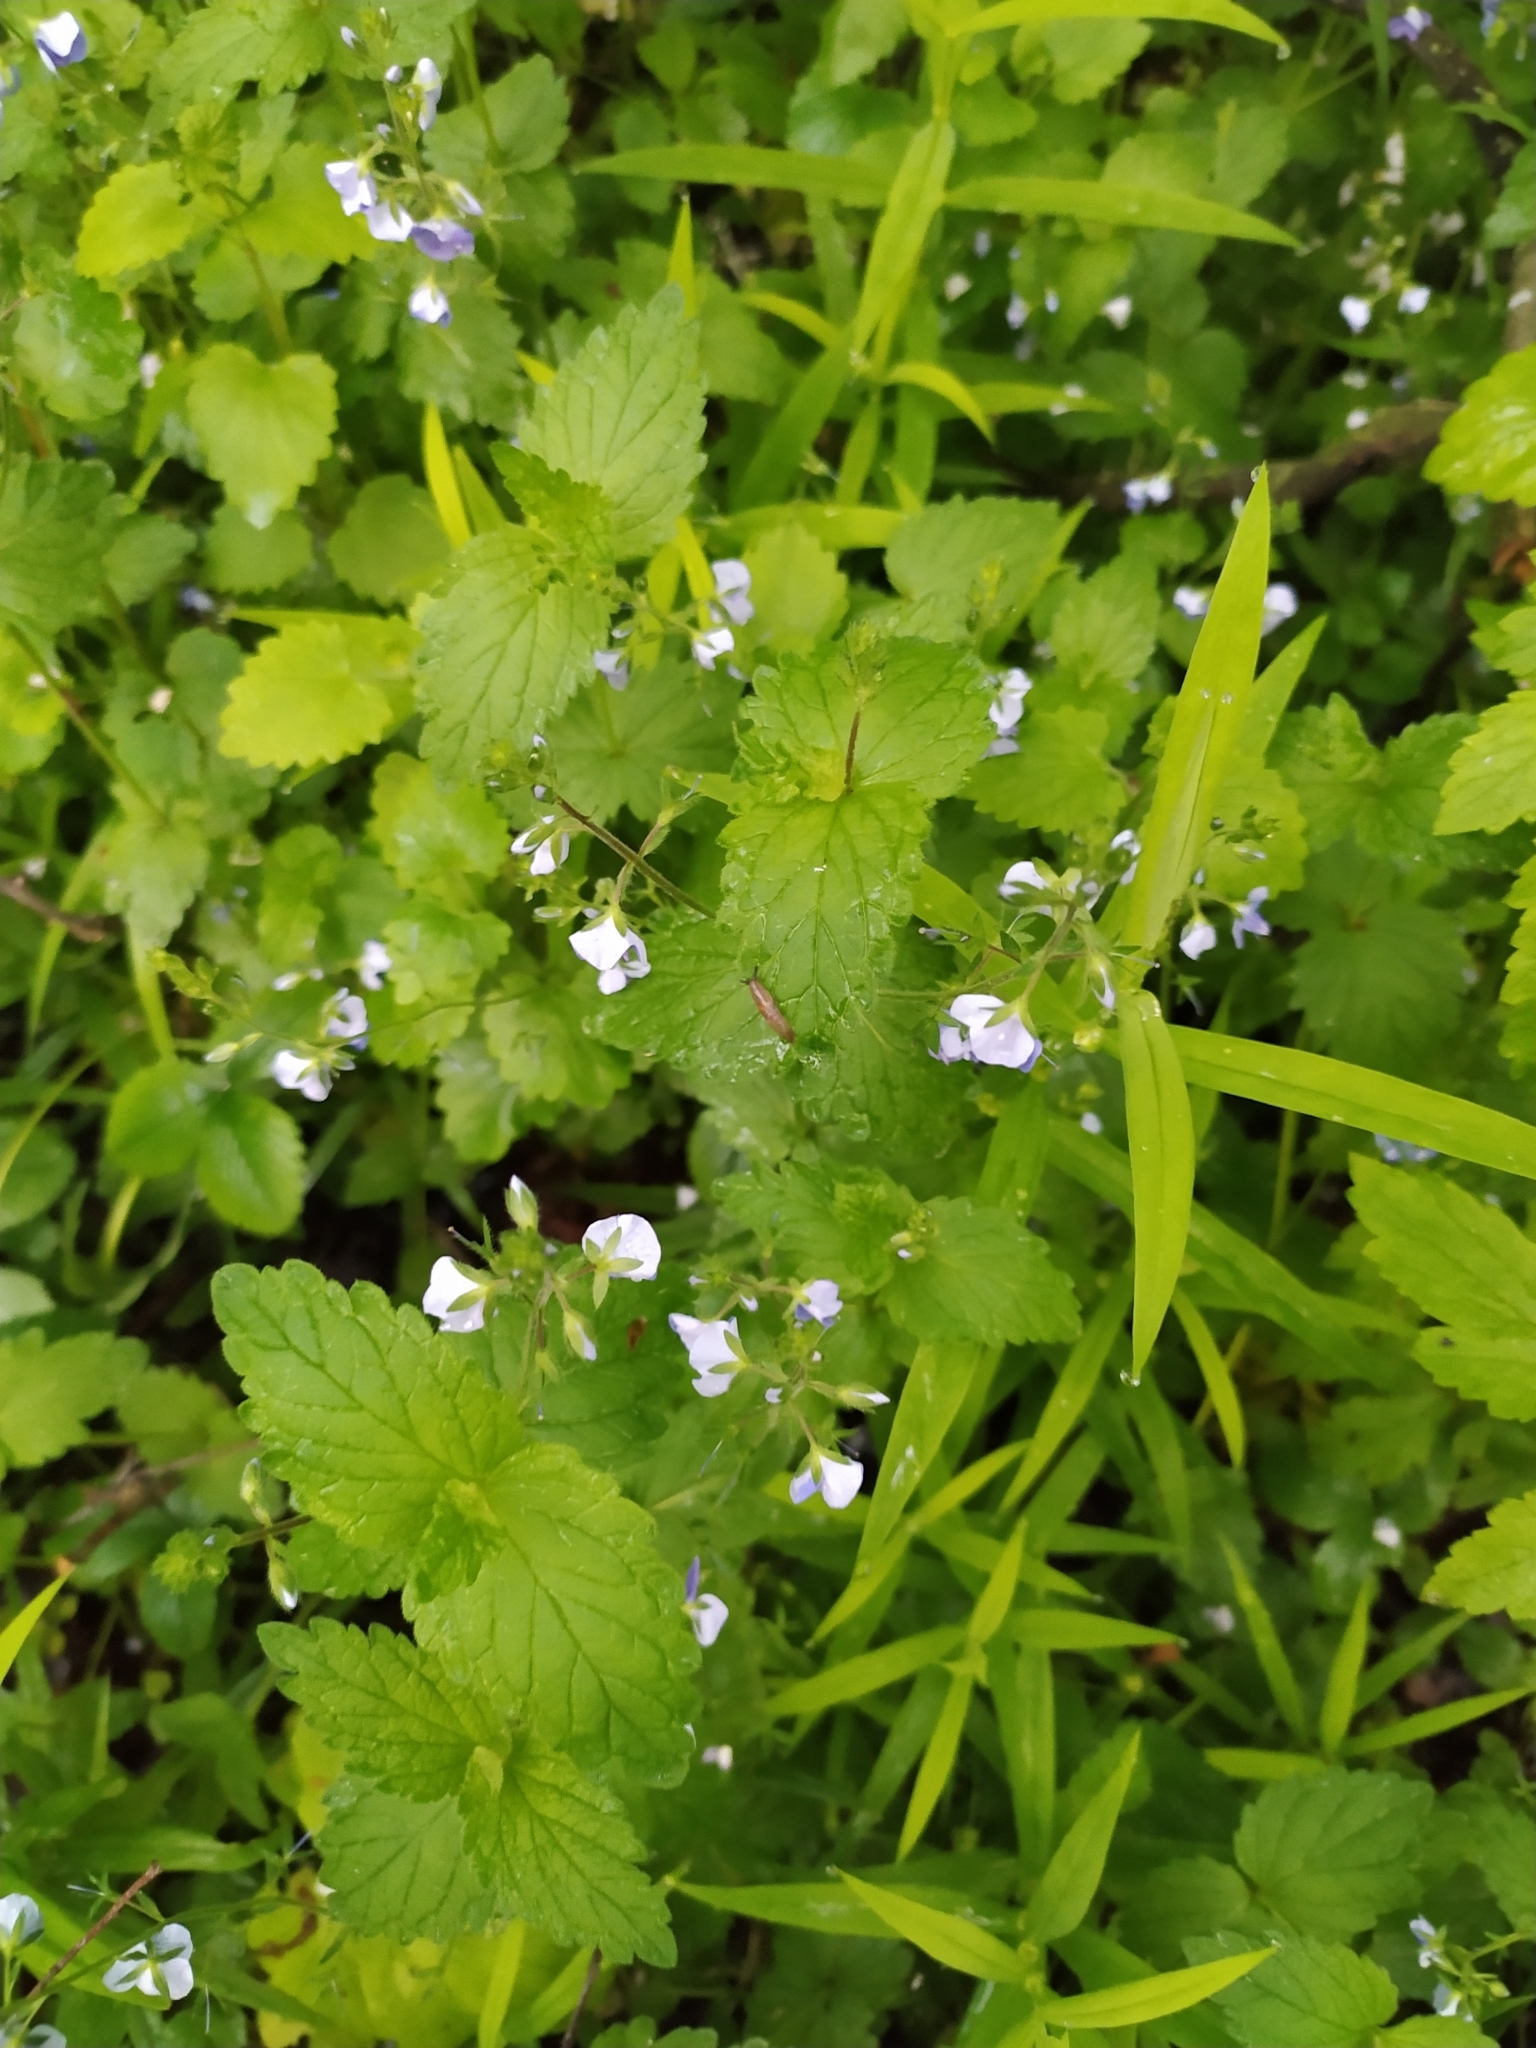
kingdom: Plantae
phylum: Tracheophyta
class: Magnoliopsida
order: Lamiales
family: Plantaginaceae
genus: Veronica
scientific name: Veronica chamaedrys
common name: Germander speedwell
